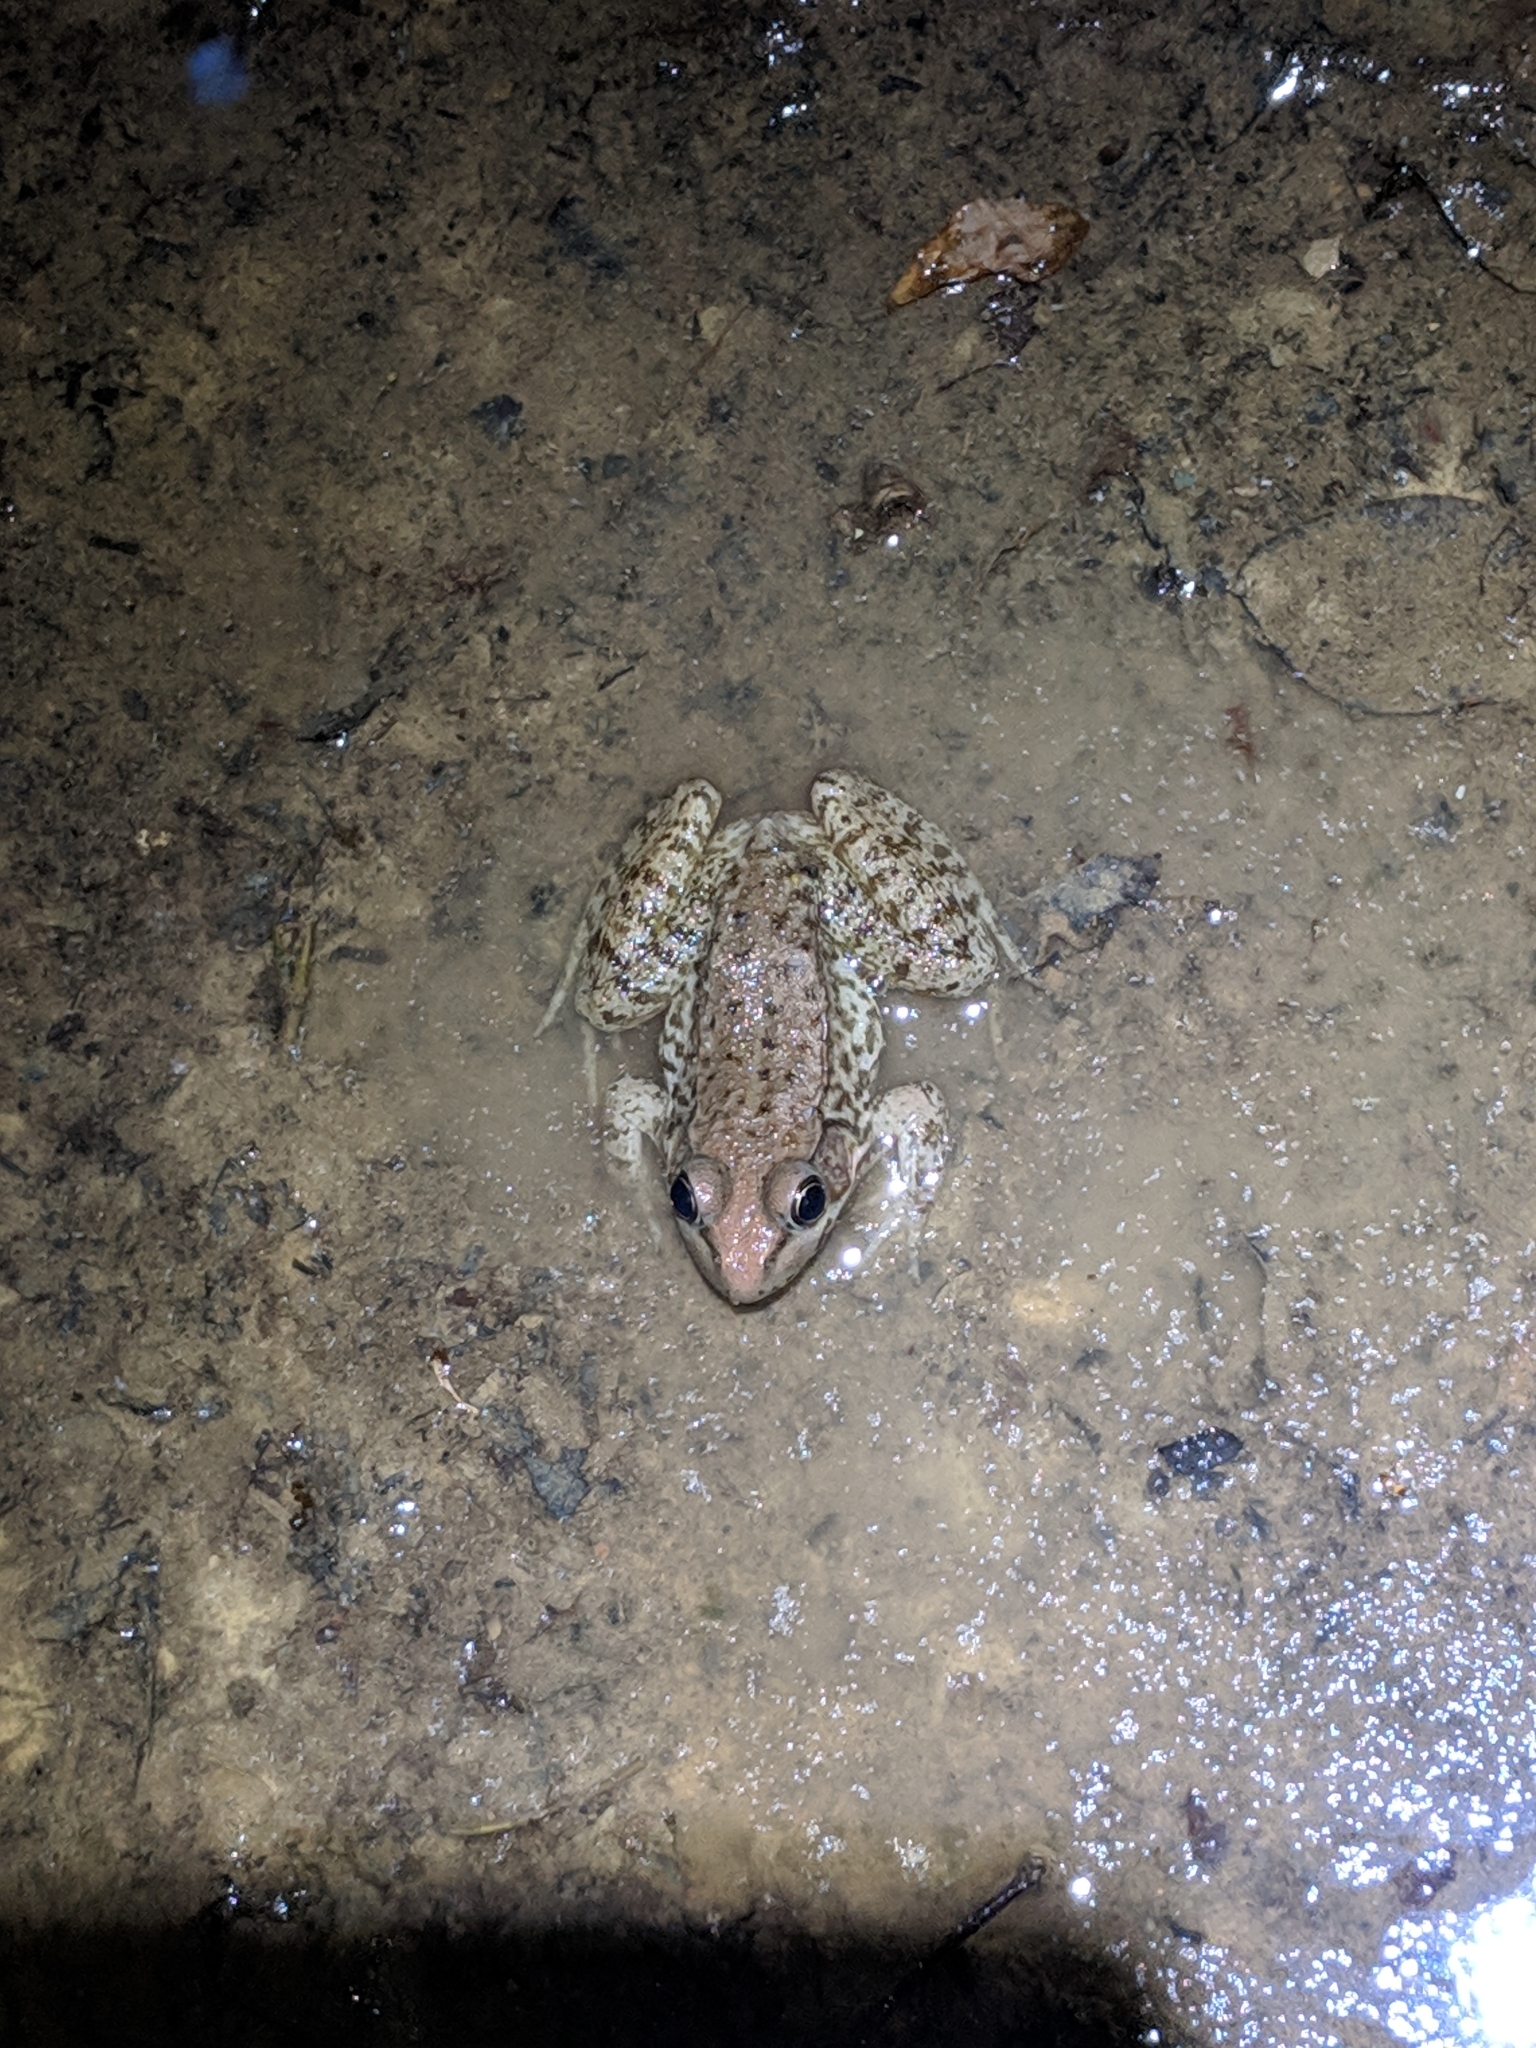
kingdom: Animalia
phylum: Chordata
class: Amphibia
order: Anura
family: Ranidae
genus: Lithobates
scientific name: Lithobates clamitans
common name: Green frog
